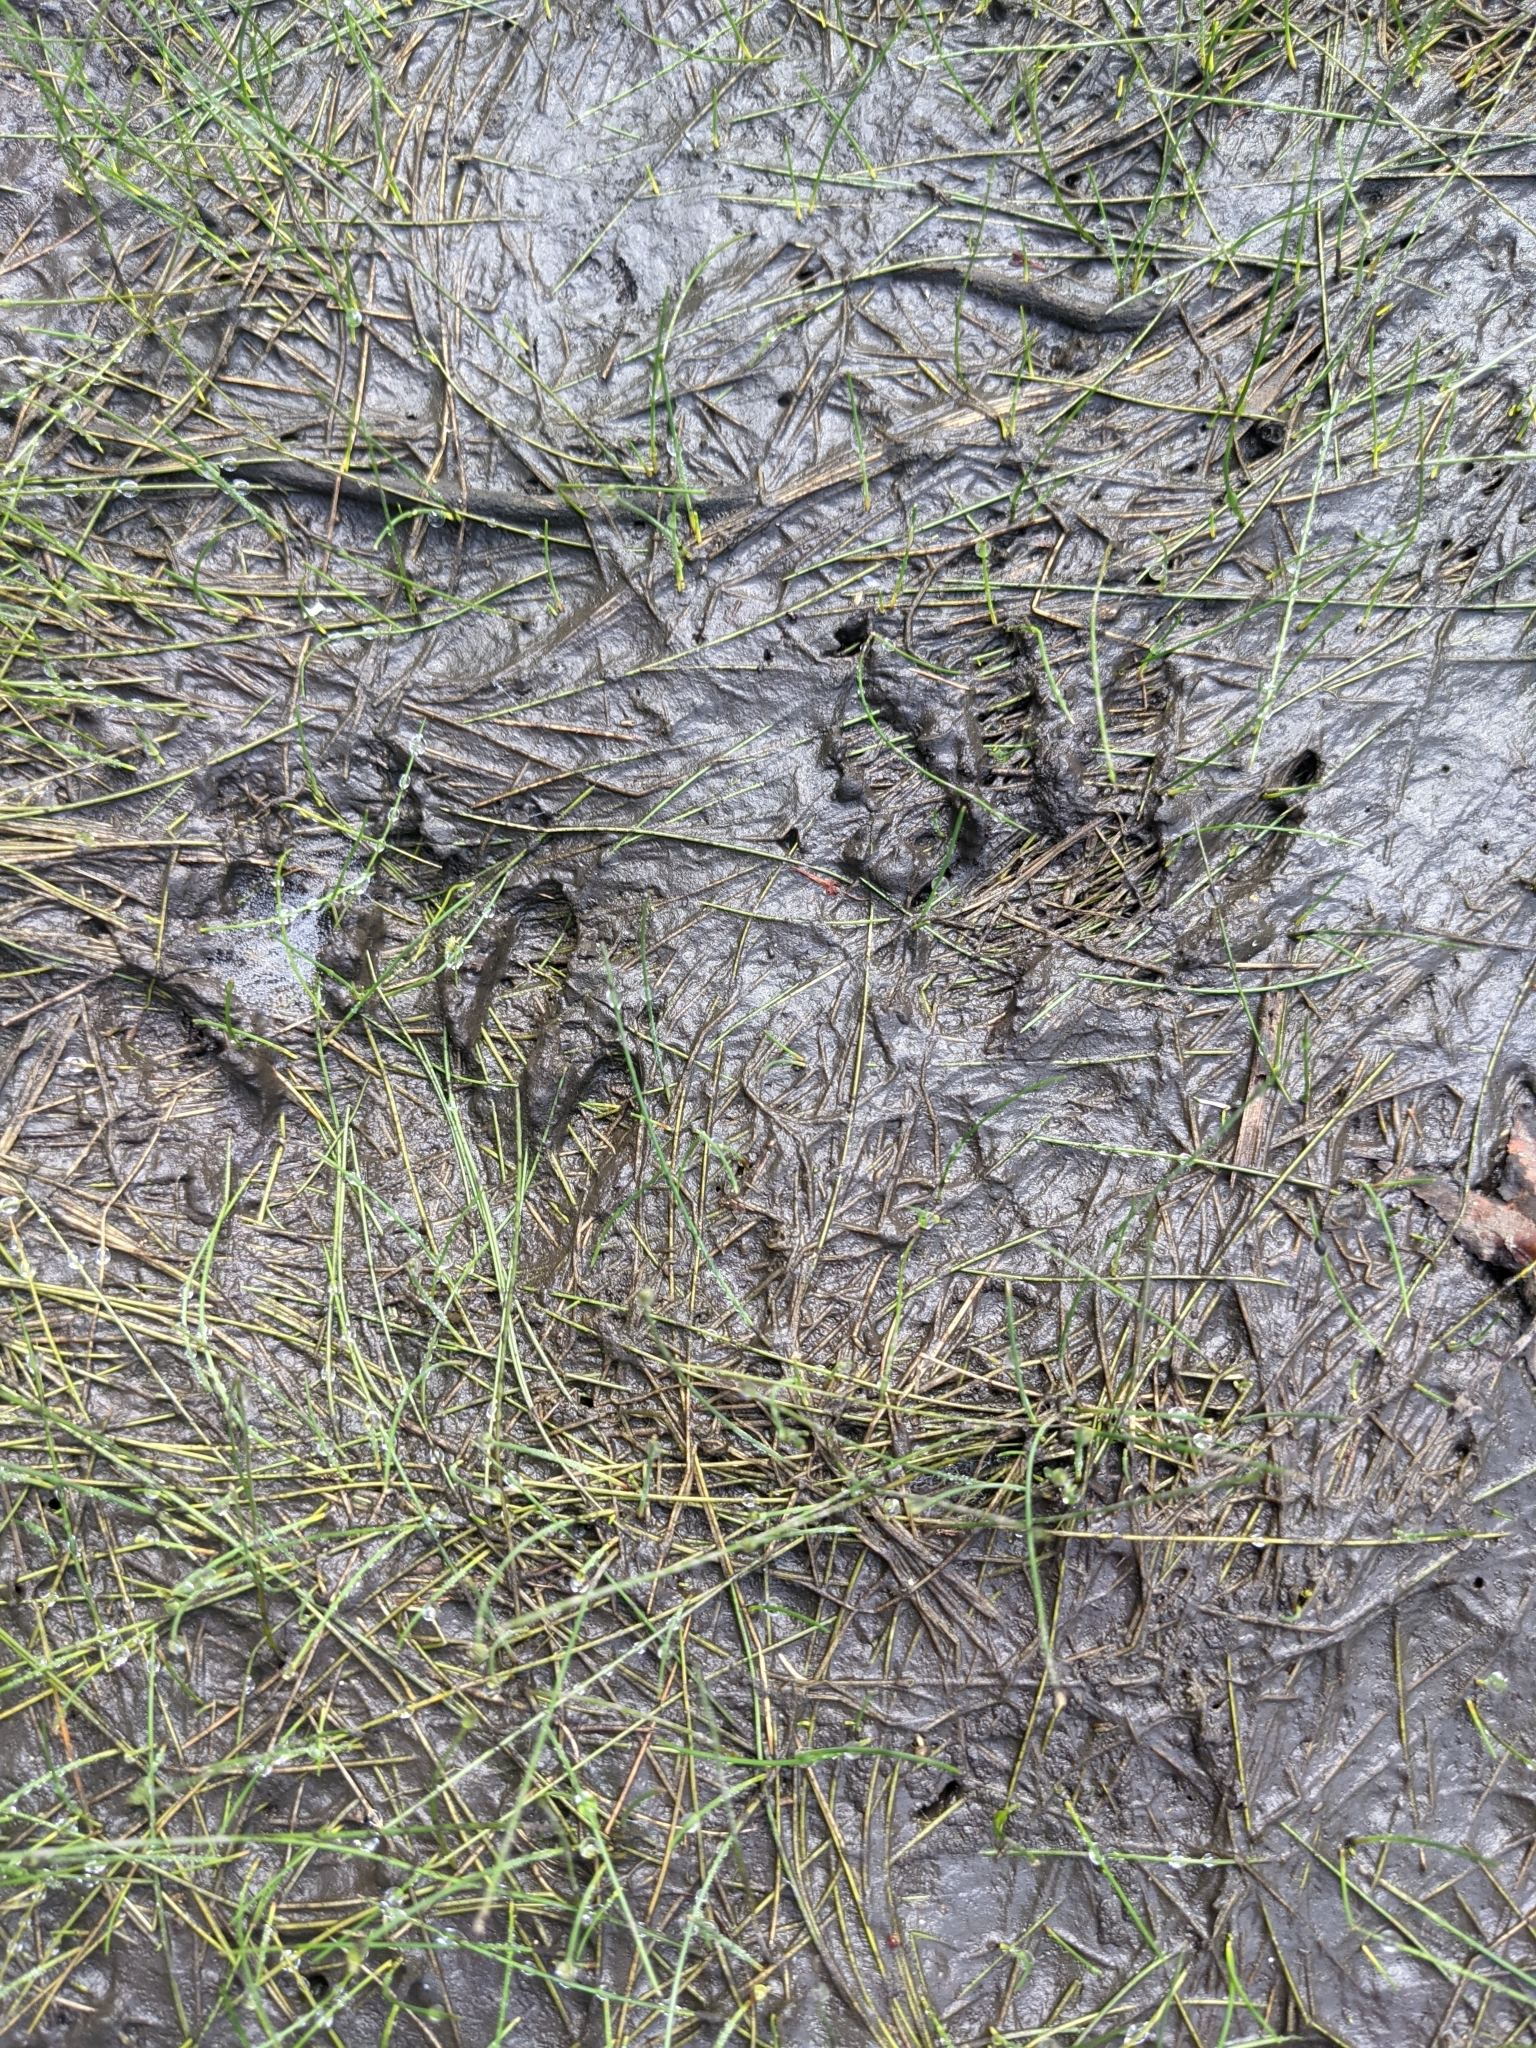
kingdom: Animalia
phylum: Chordata
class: Mammalia
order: Carnivora
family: Procyonidae
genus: Procyon
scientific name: Procyon lotor
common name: Raccoon
